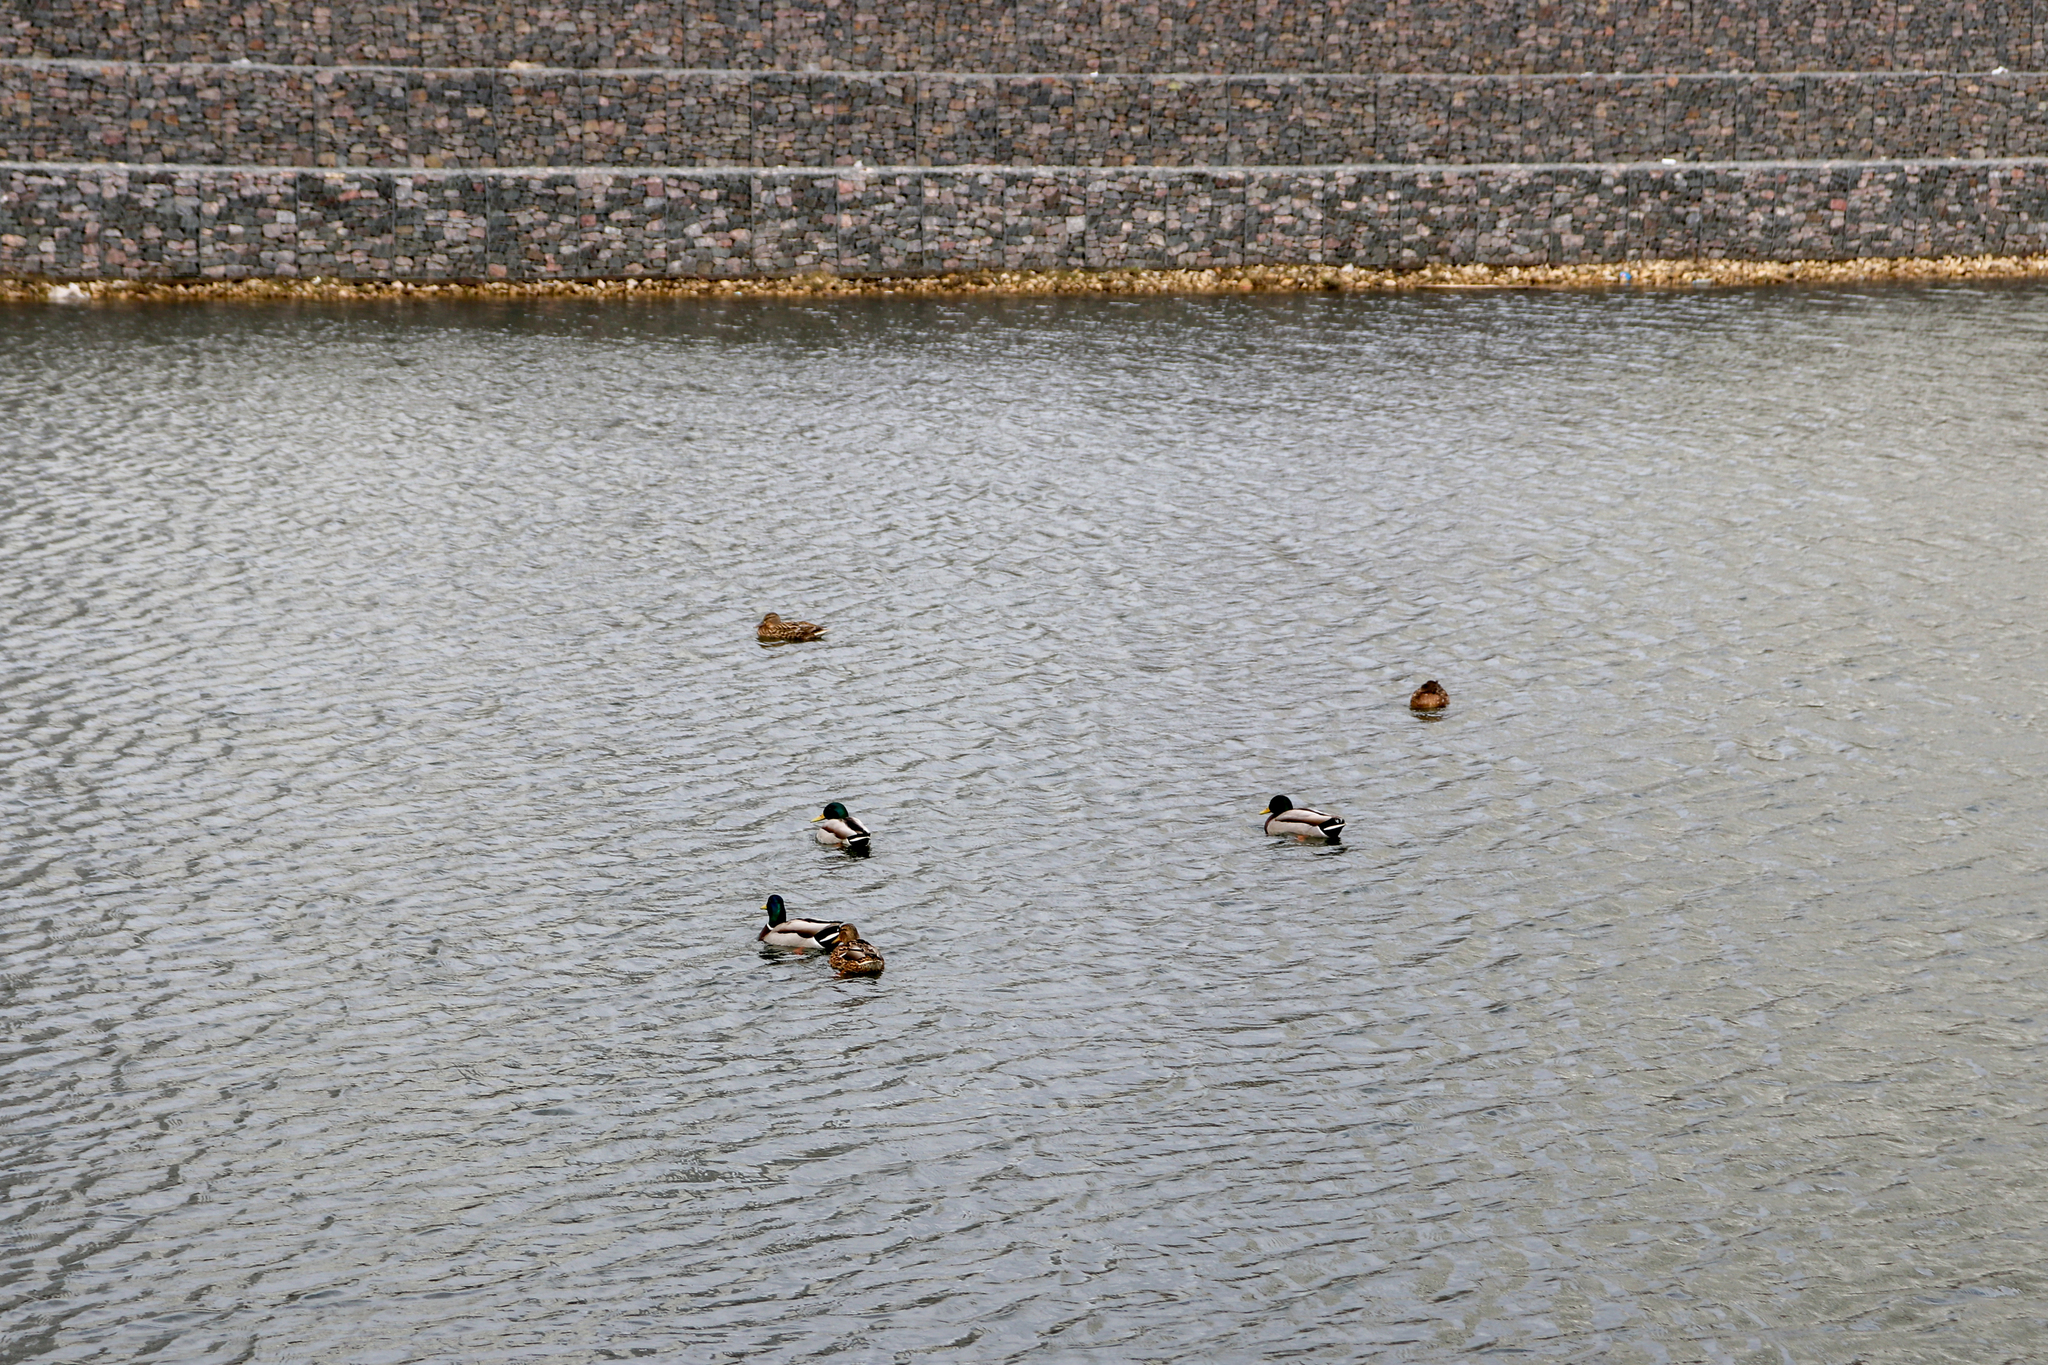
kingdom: Animalia
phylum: Chordata
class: Aves
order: Anseriformes
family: Anatidae
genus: Anas
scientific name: Anas platyrhynchos
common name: Mallard
